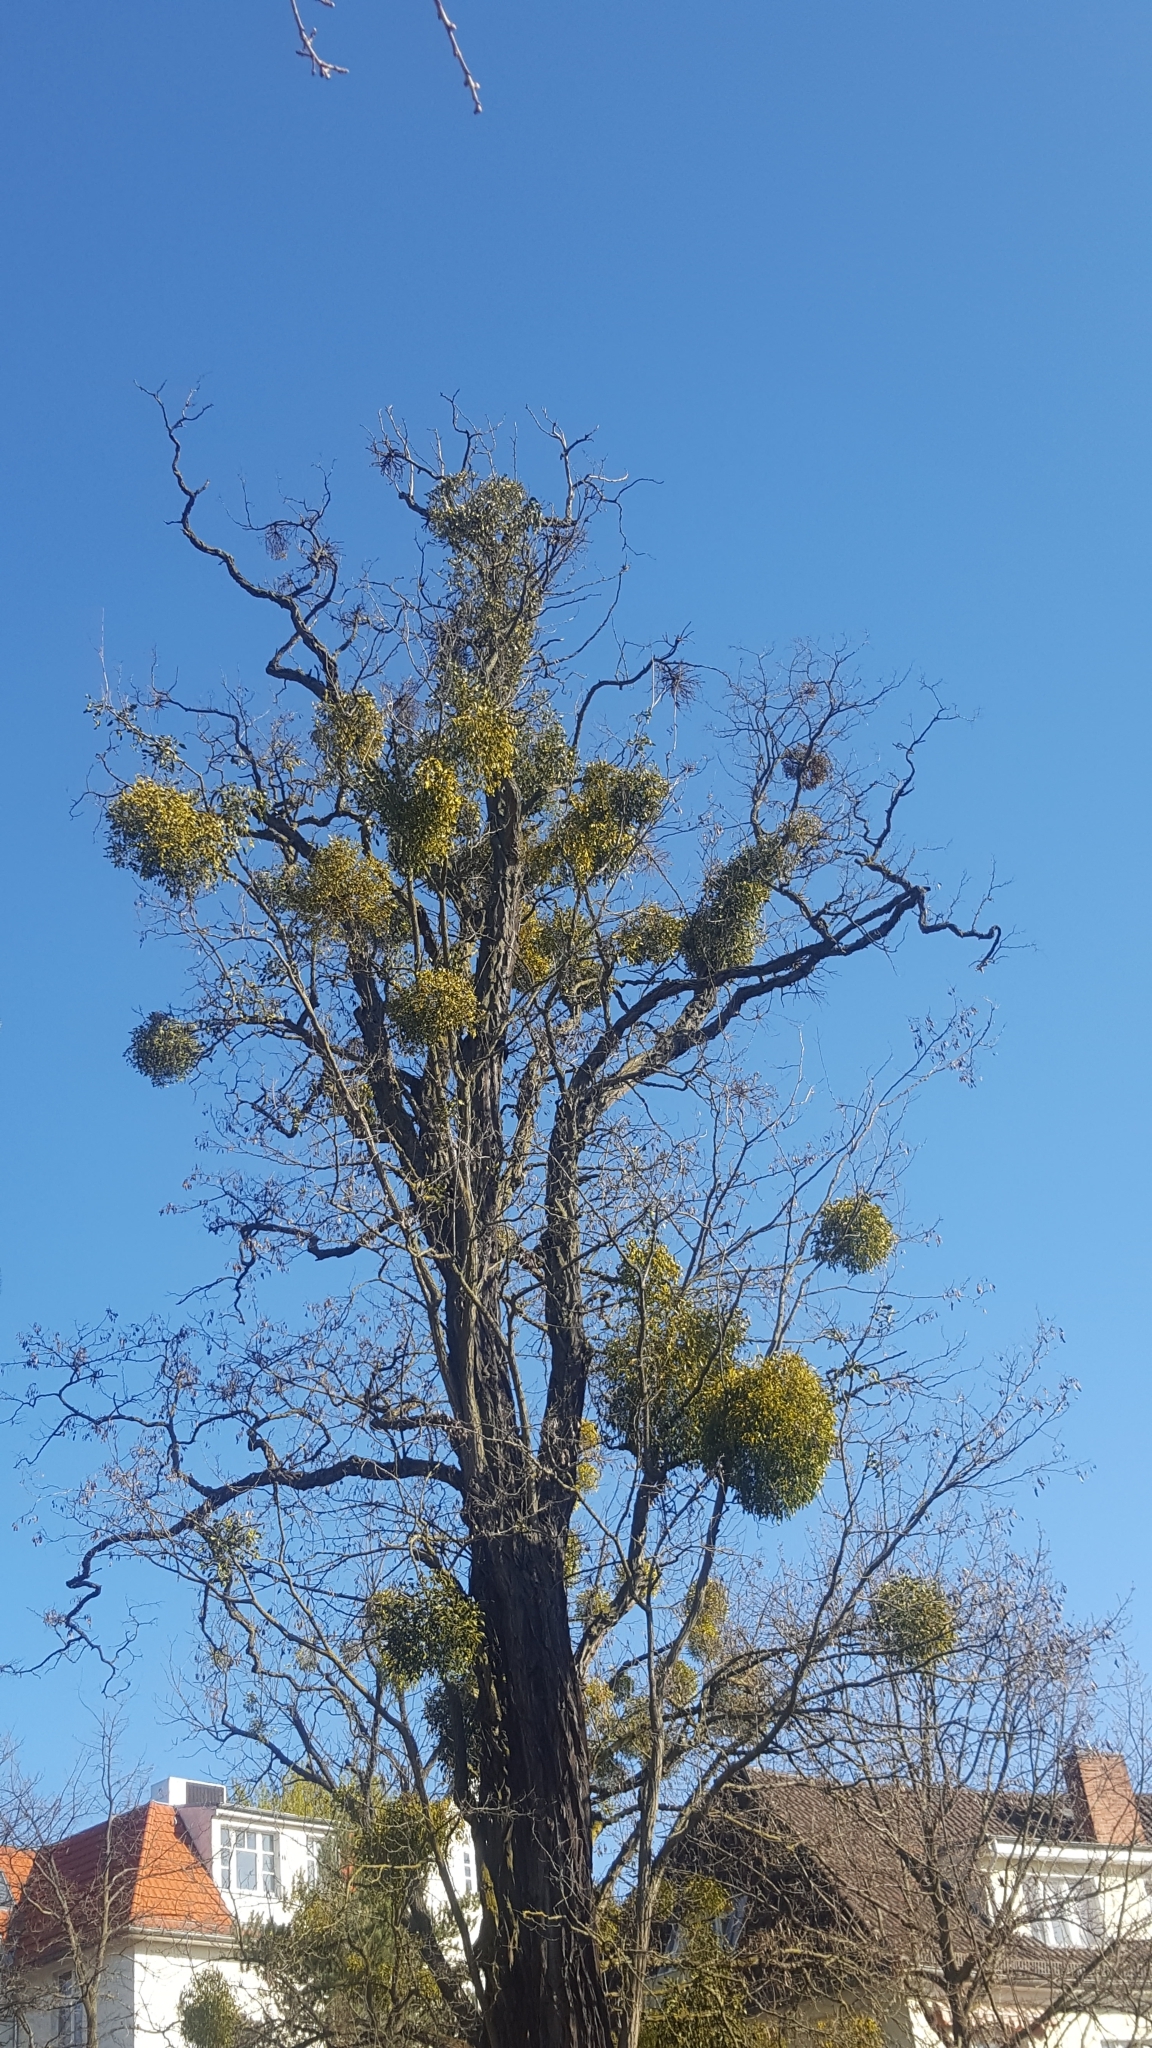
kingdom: Plantae
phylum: Tracheophyta
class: Magnoliopsida
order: Santalales
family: Viscaceae
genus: Viscum
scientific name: Viscum album
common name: Mistletoe
